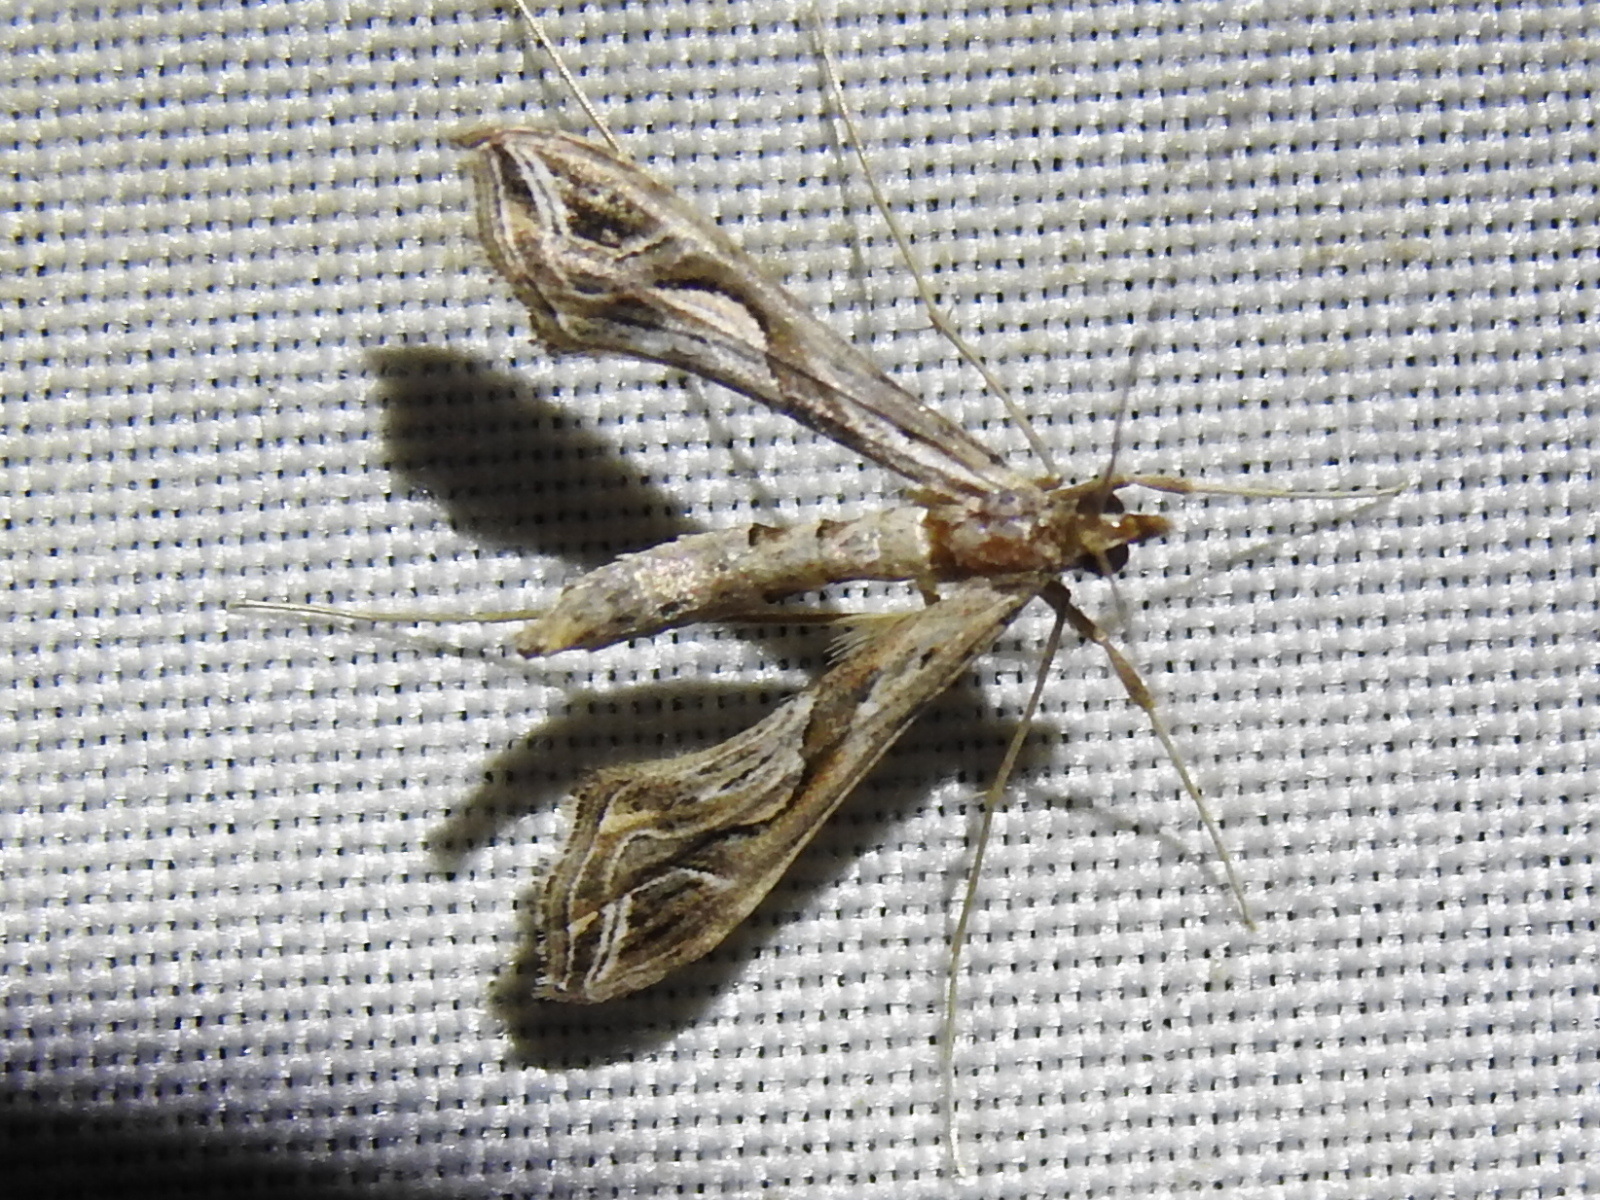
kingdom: Animalia
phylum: Arthropoda
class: Insecta
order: Lepidoptera
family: Crambidae
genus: Lineodes
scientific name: Lineodes integra
